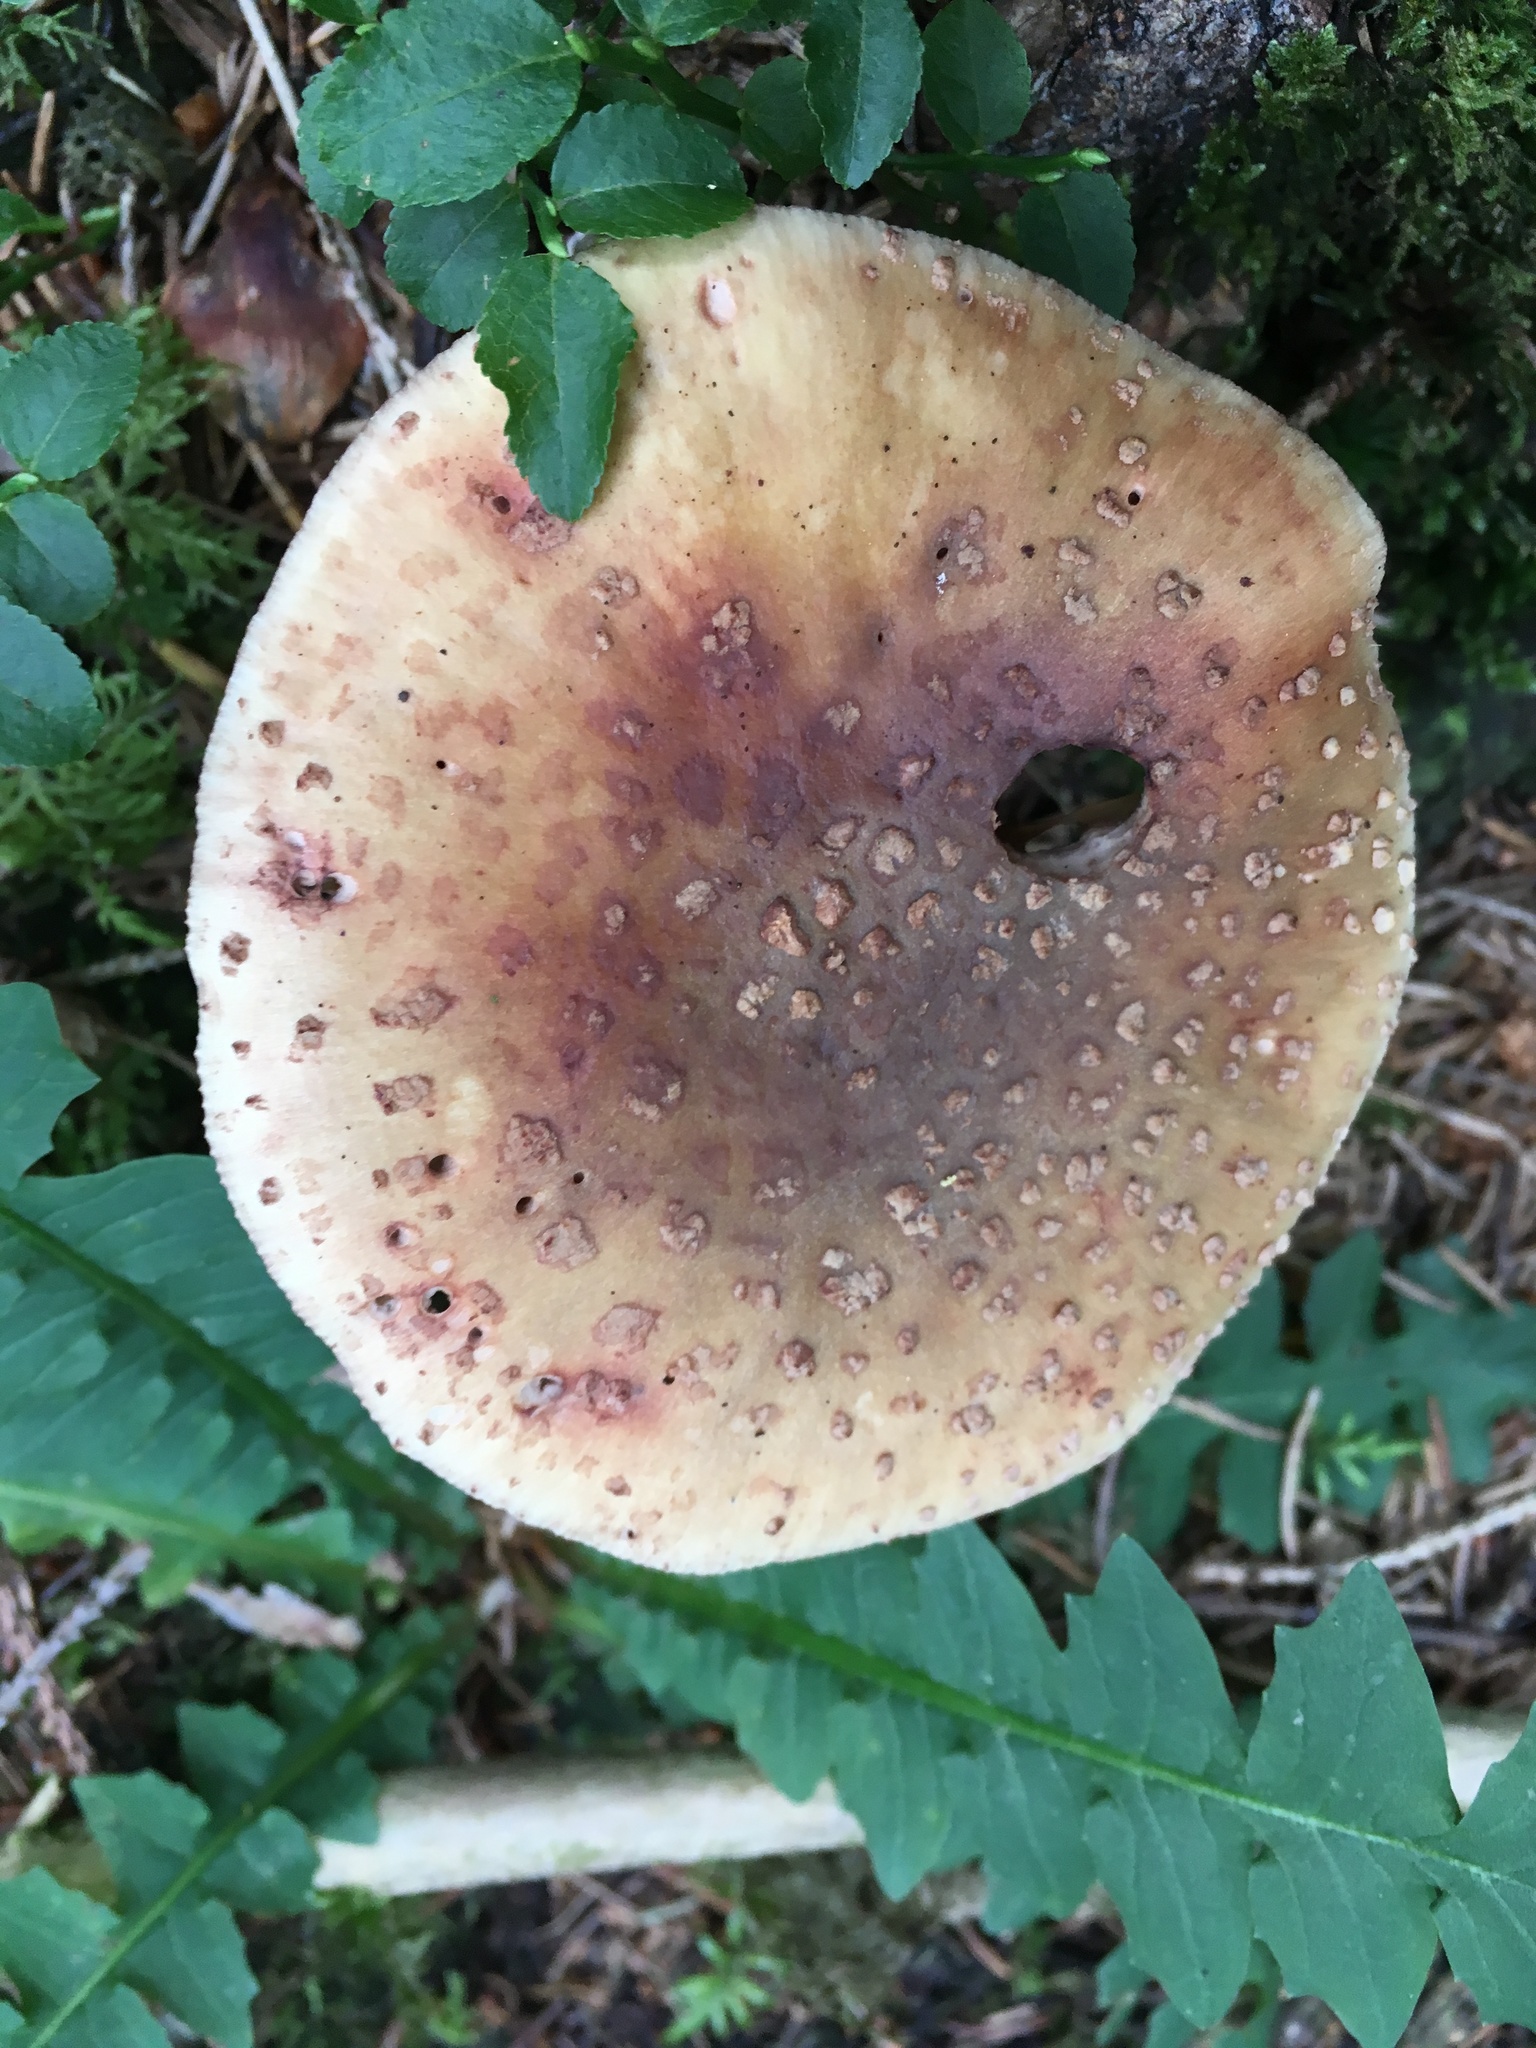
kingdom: Fungi
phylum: Basidiomycota
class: Agaricomycetes
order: Agaricales
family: Amanitaceae
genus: Amanita
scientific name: Amanita rubescens
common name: Blusher
